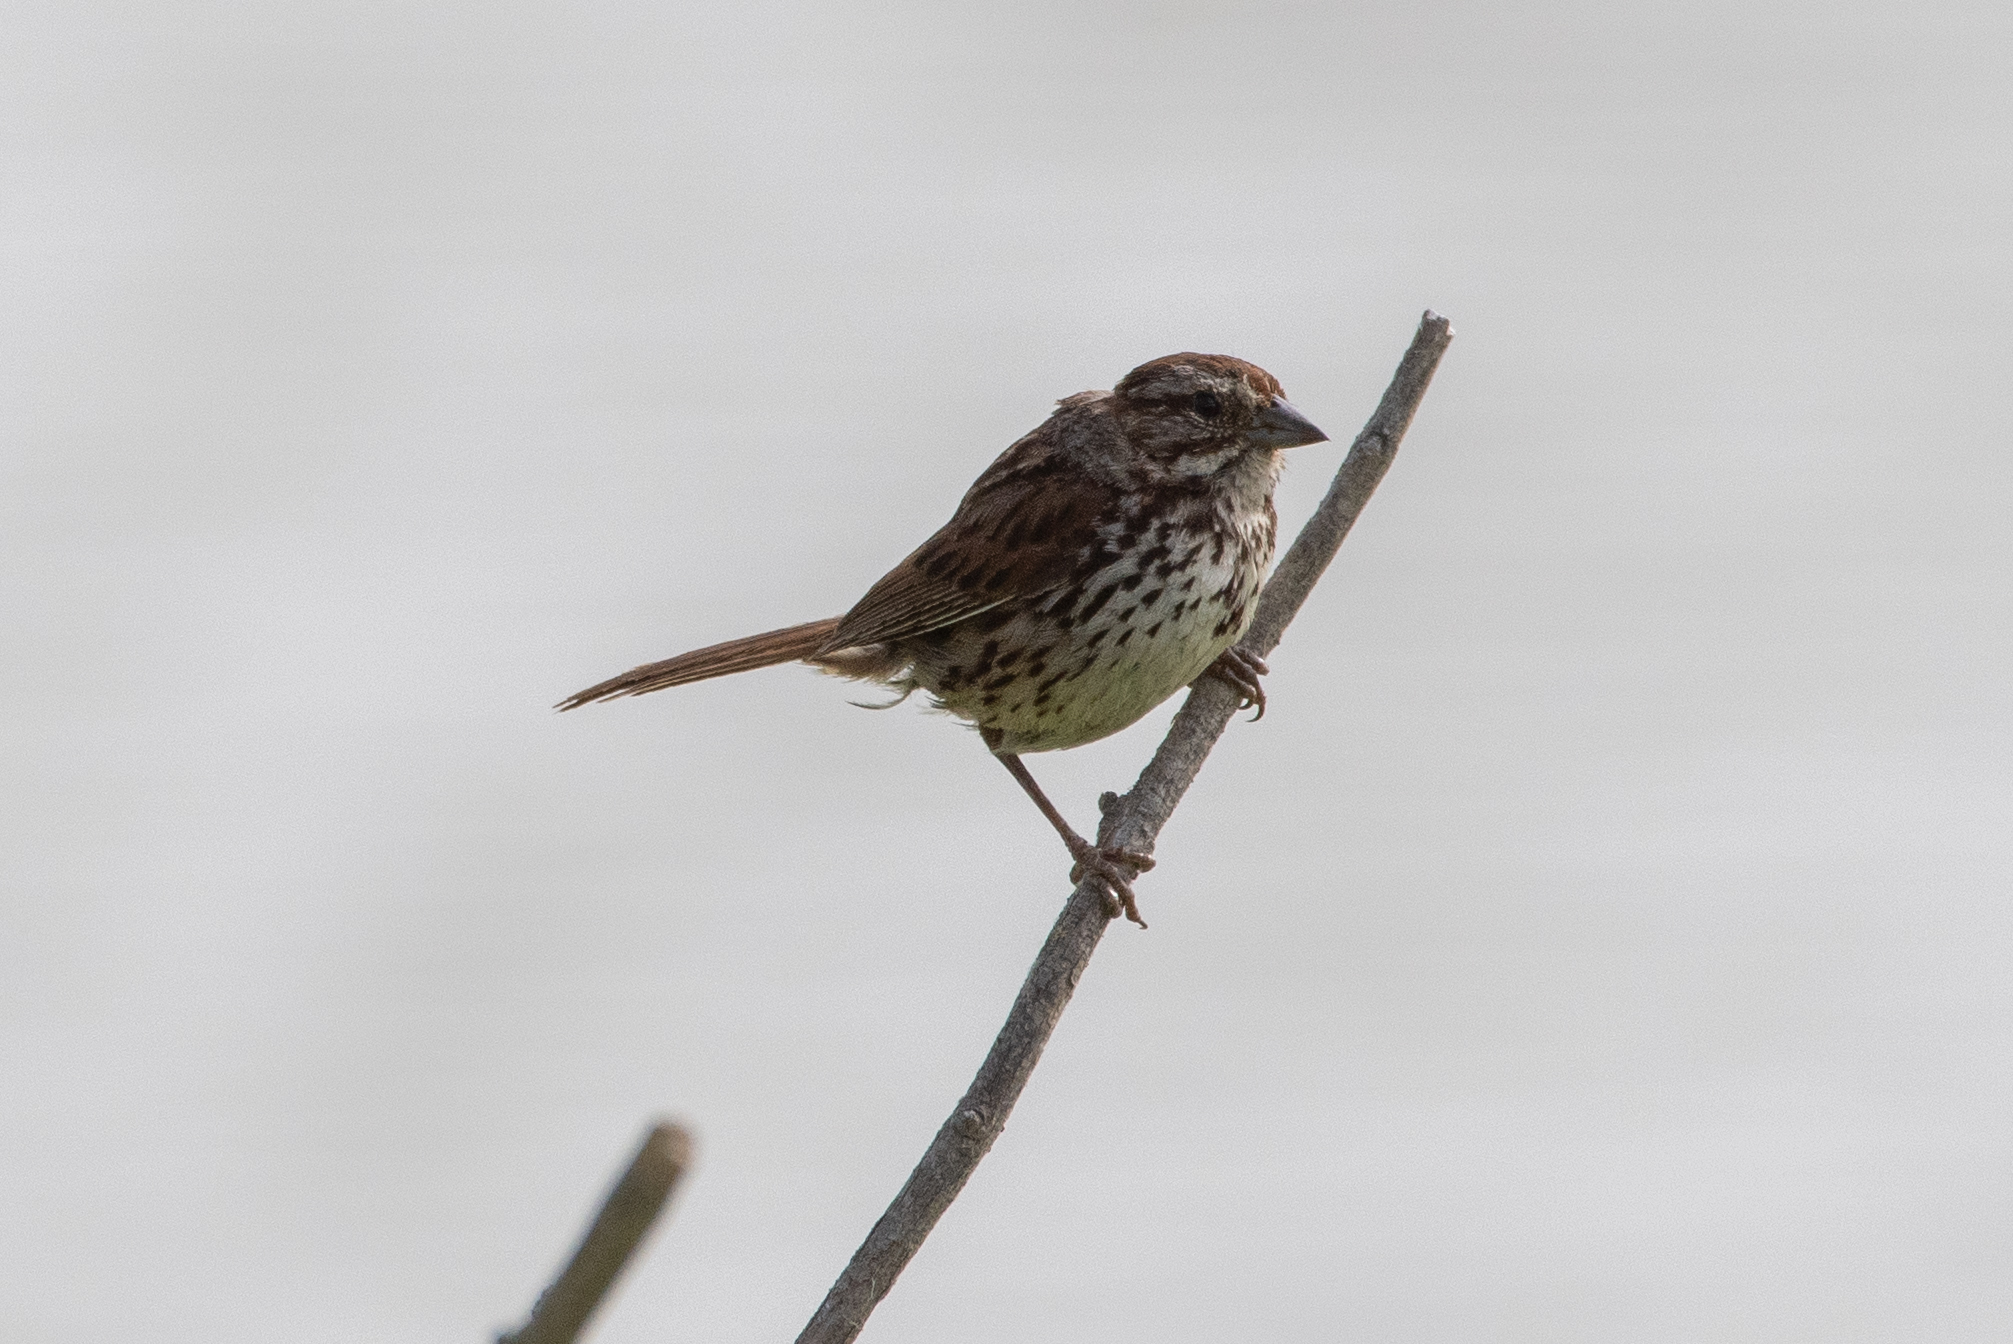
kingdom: Animalia
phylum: Chordata
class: Aves
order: Passeriformes
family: Passerellidae
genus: Melospiza
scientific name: Melospiza melodia
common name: Song sparrow
